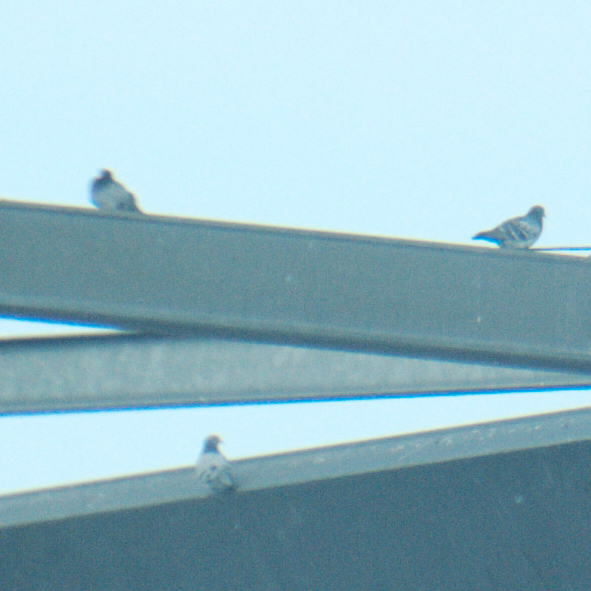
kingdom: Animalia
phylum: Chordata
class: Aves
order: Columbiformes
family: Columbidae
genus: Columba
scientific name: Columba livia
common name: Rock pigeon
